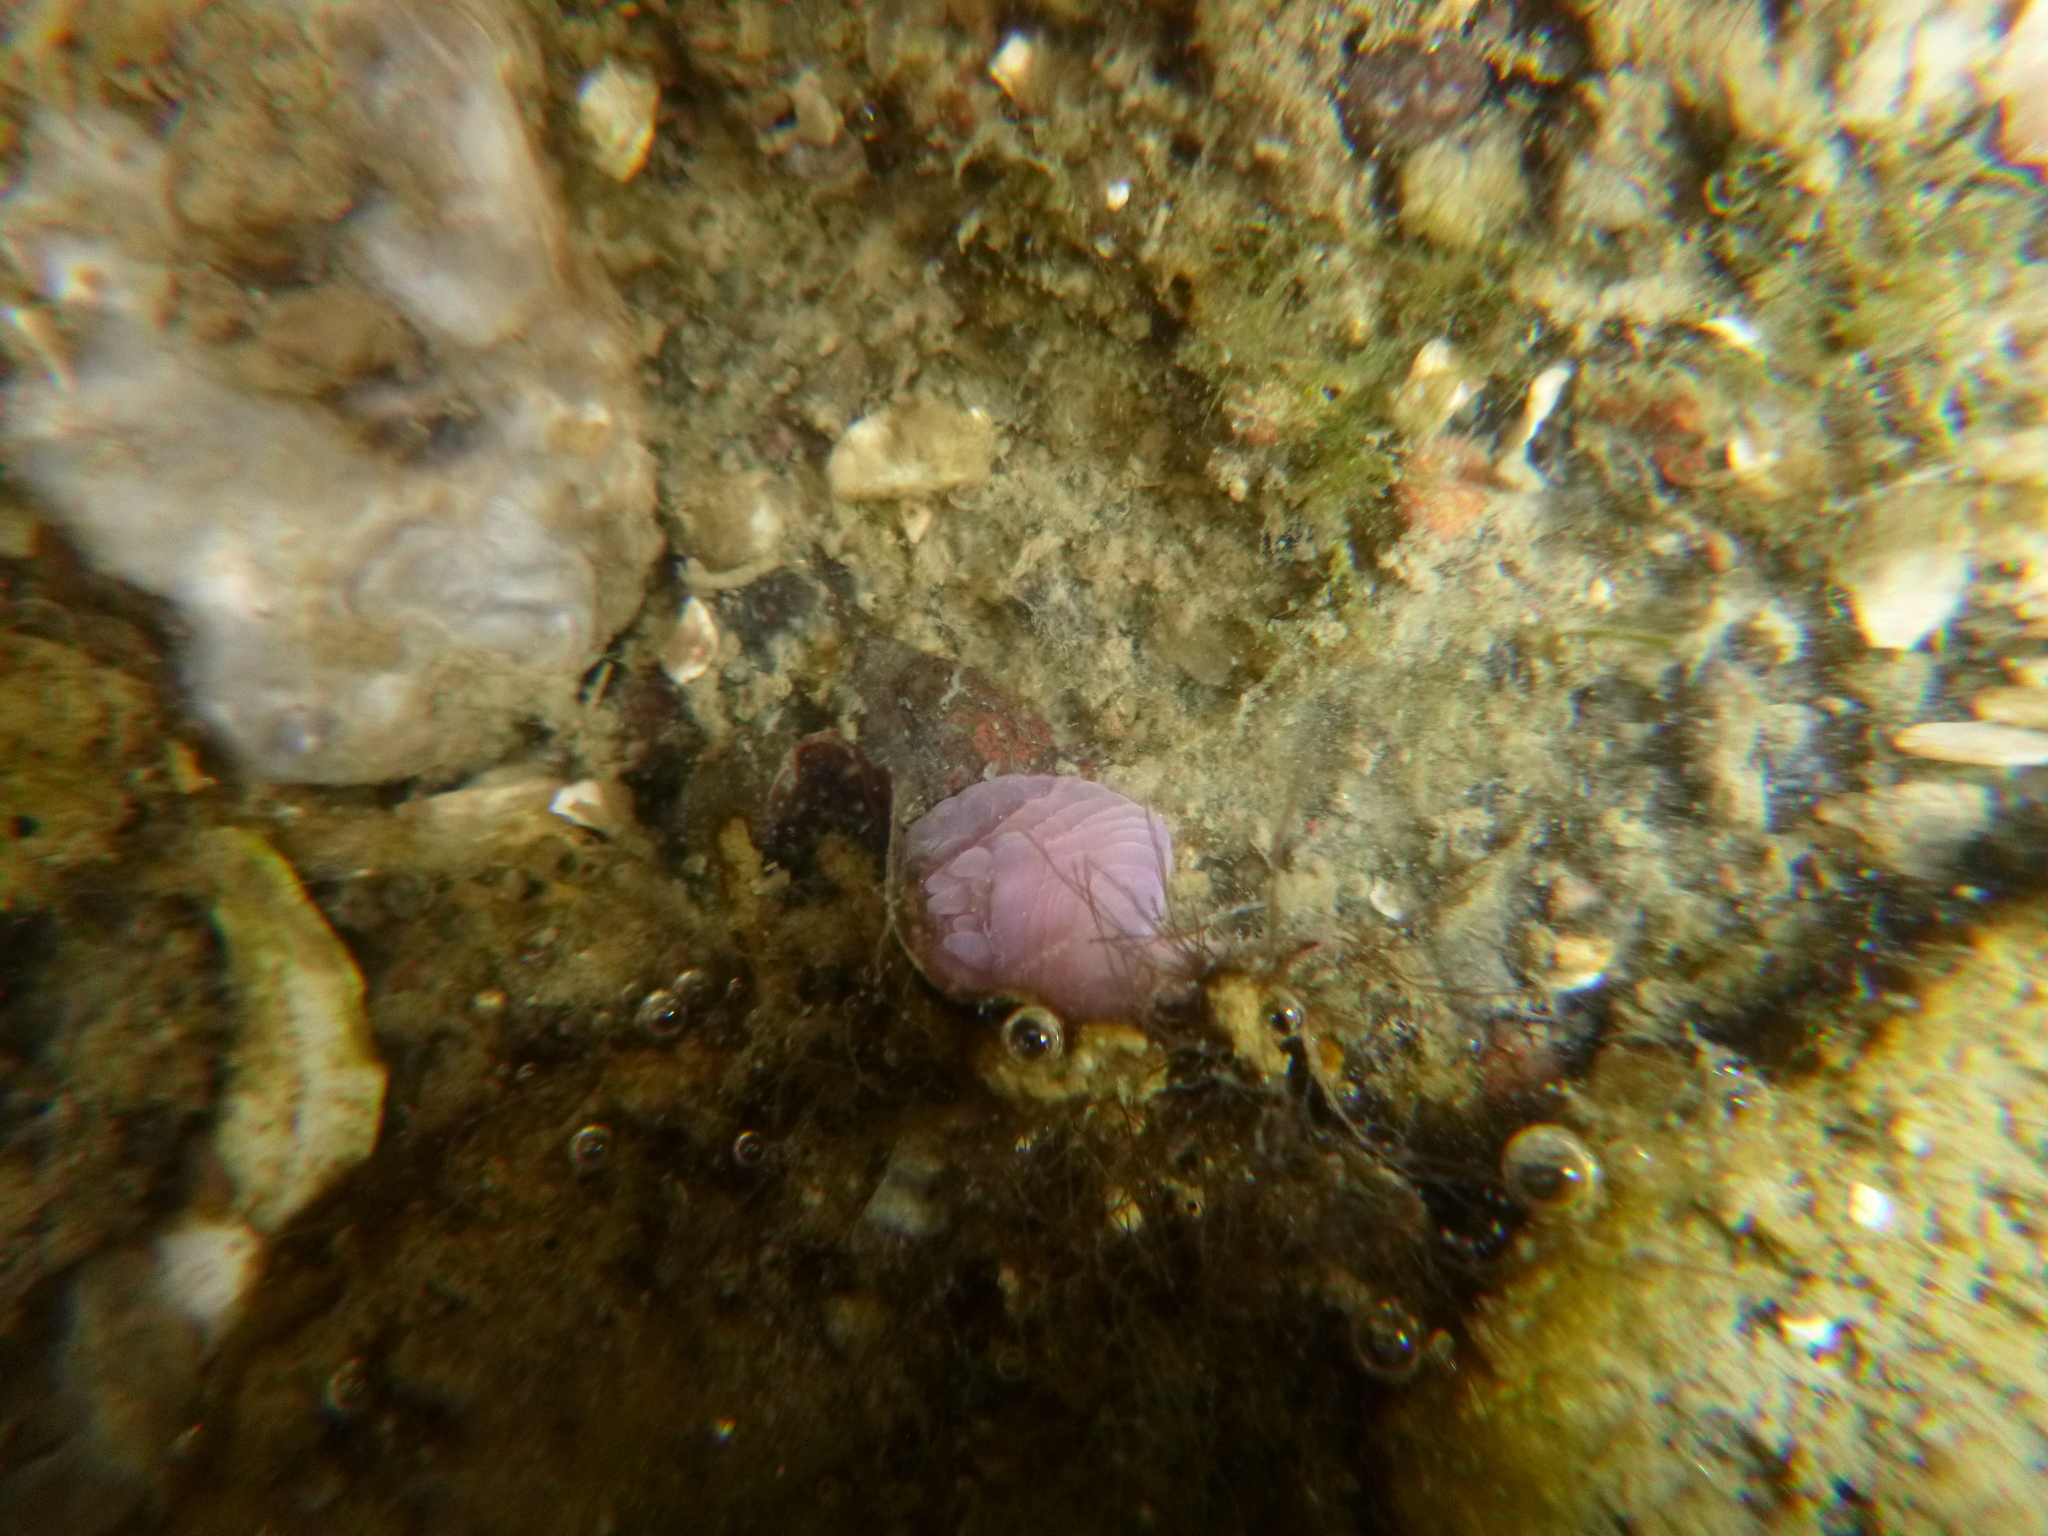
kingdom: Animalia
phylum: Cnidaria
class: Anthozoa
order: Actiniaria
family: Actiniidae
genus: Actinia
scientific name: Actinia tenebrosa
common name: Waratah anemone
